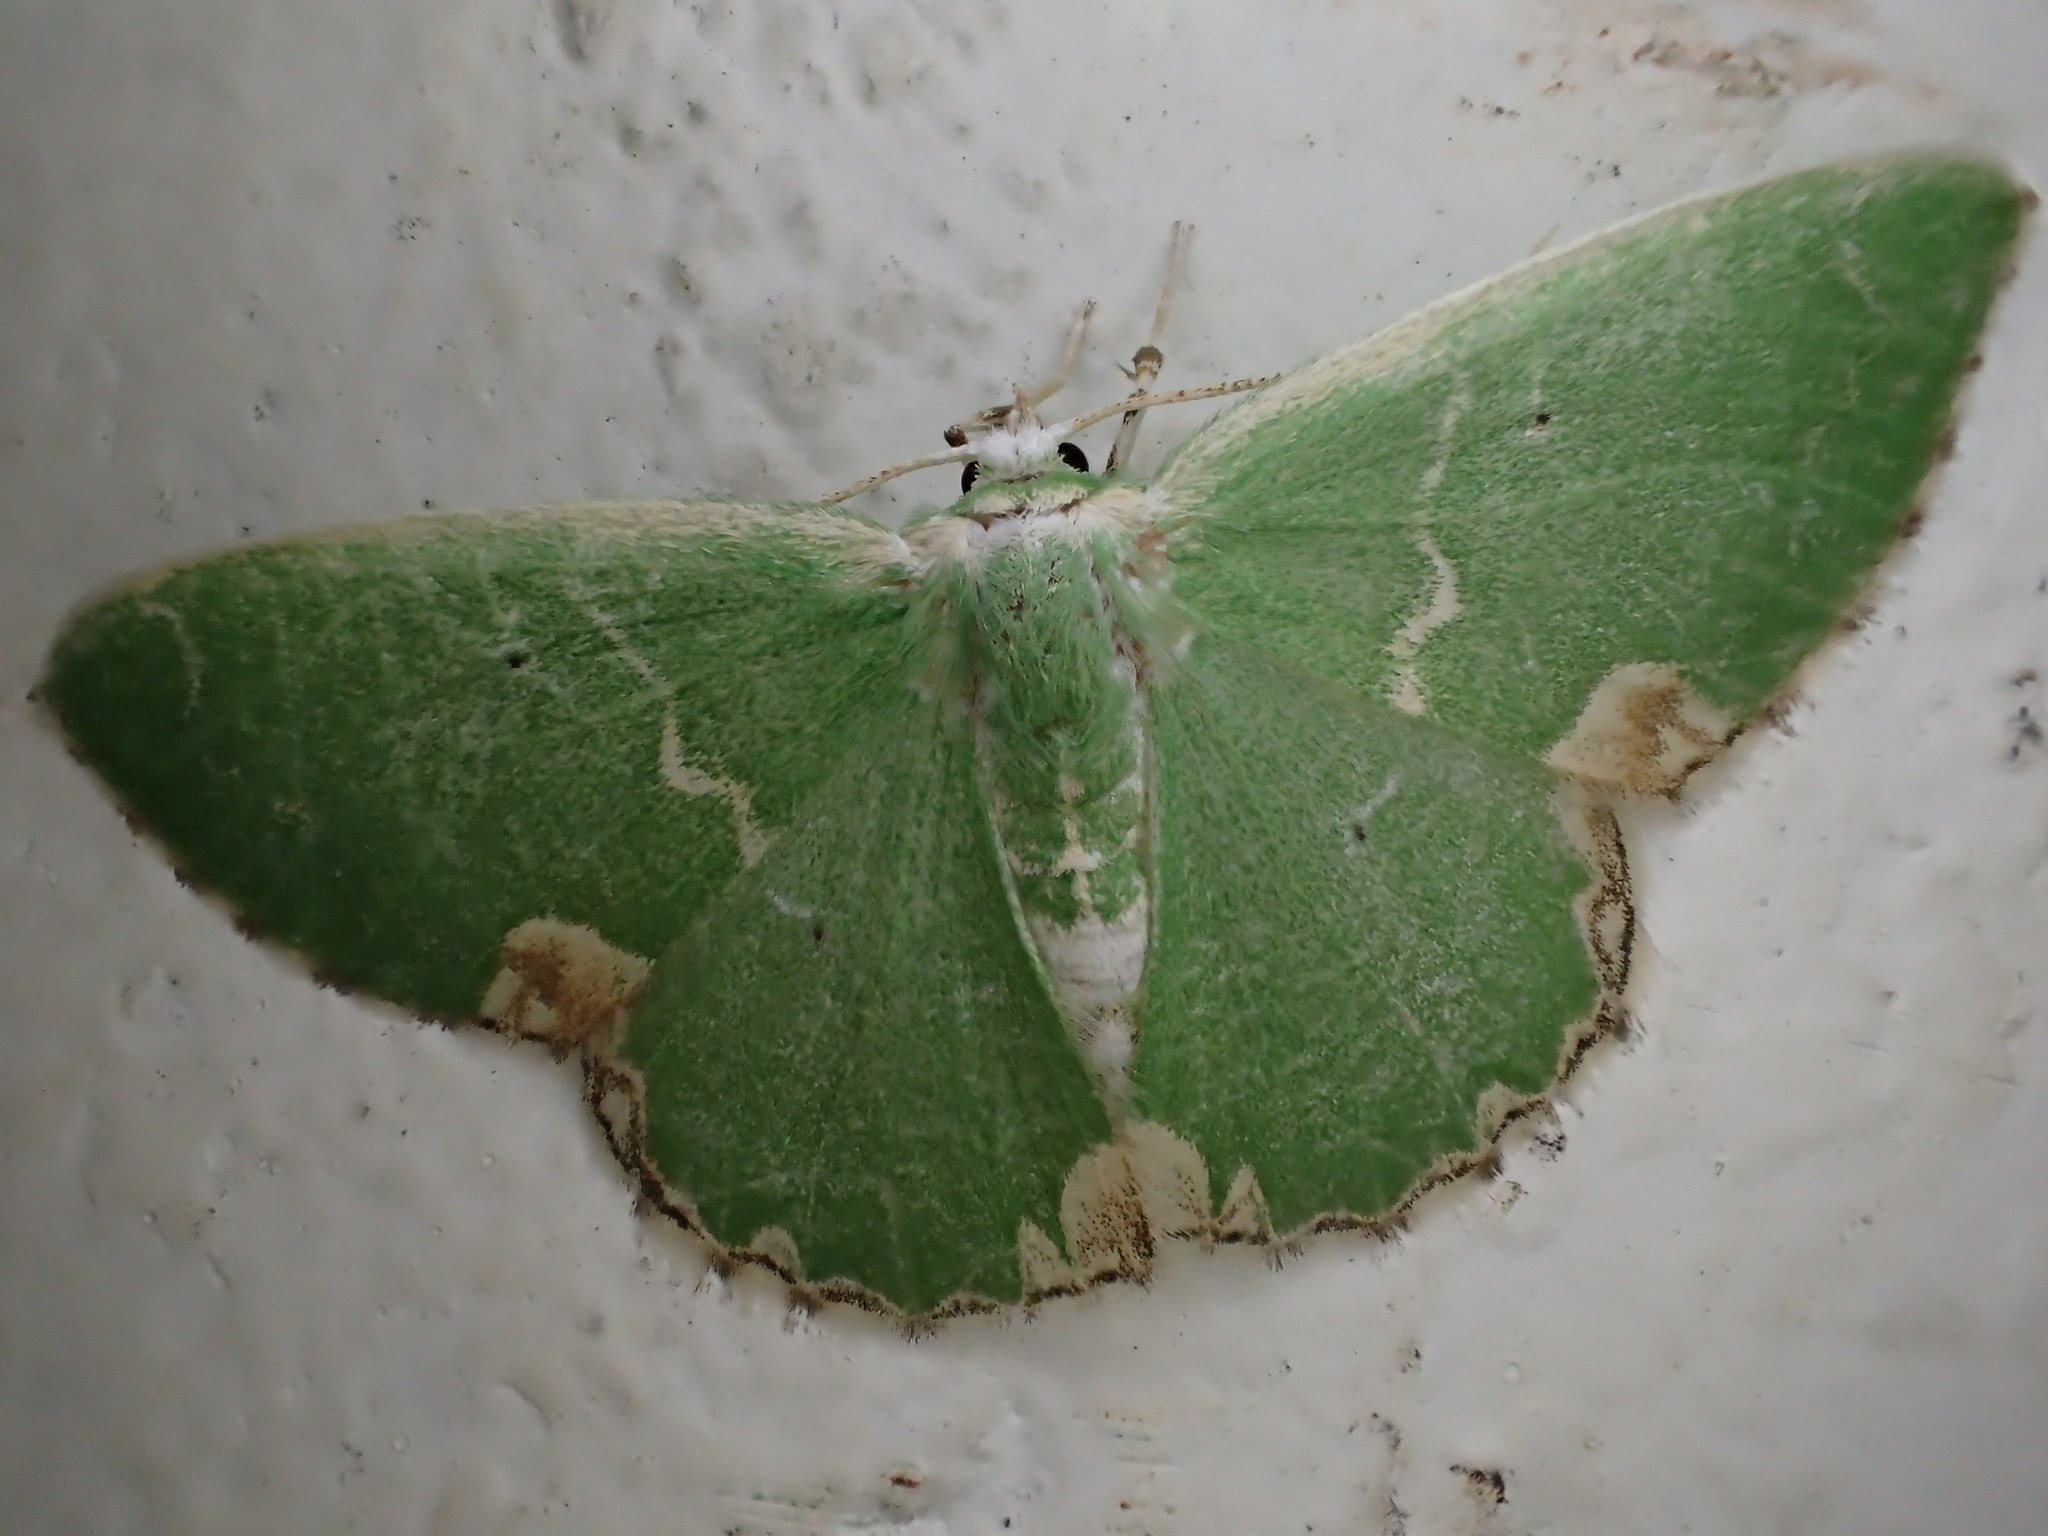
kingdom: Animalia
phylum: Arthropoda
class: Insecta
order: Lepidoptera
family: Geometridae
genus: Comibaena
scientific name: Comibaena bajularia
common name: Blotched emerald
